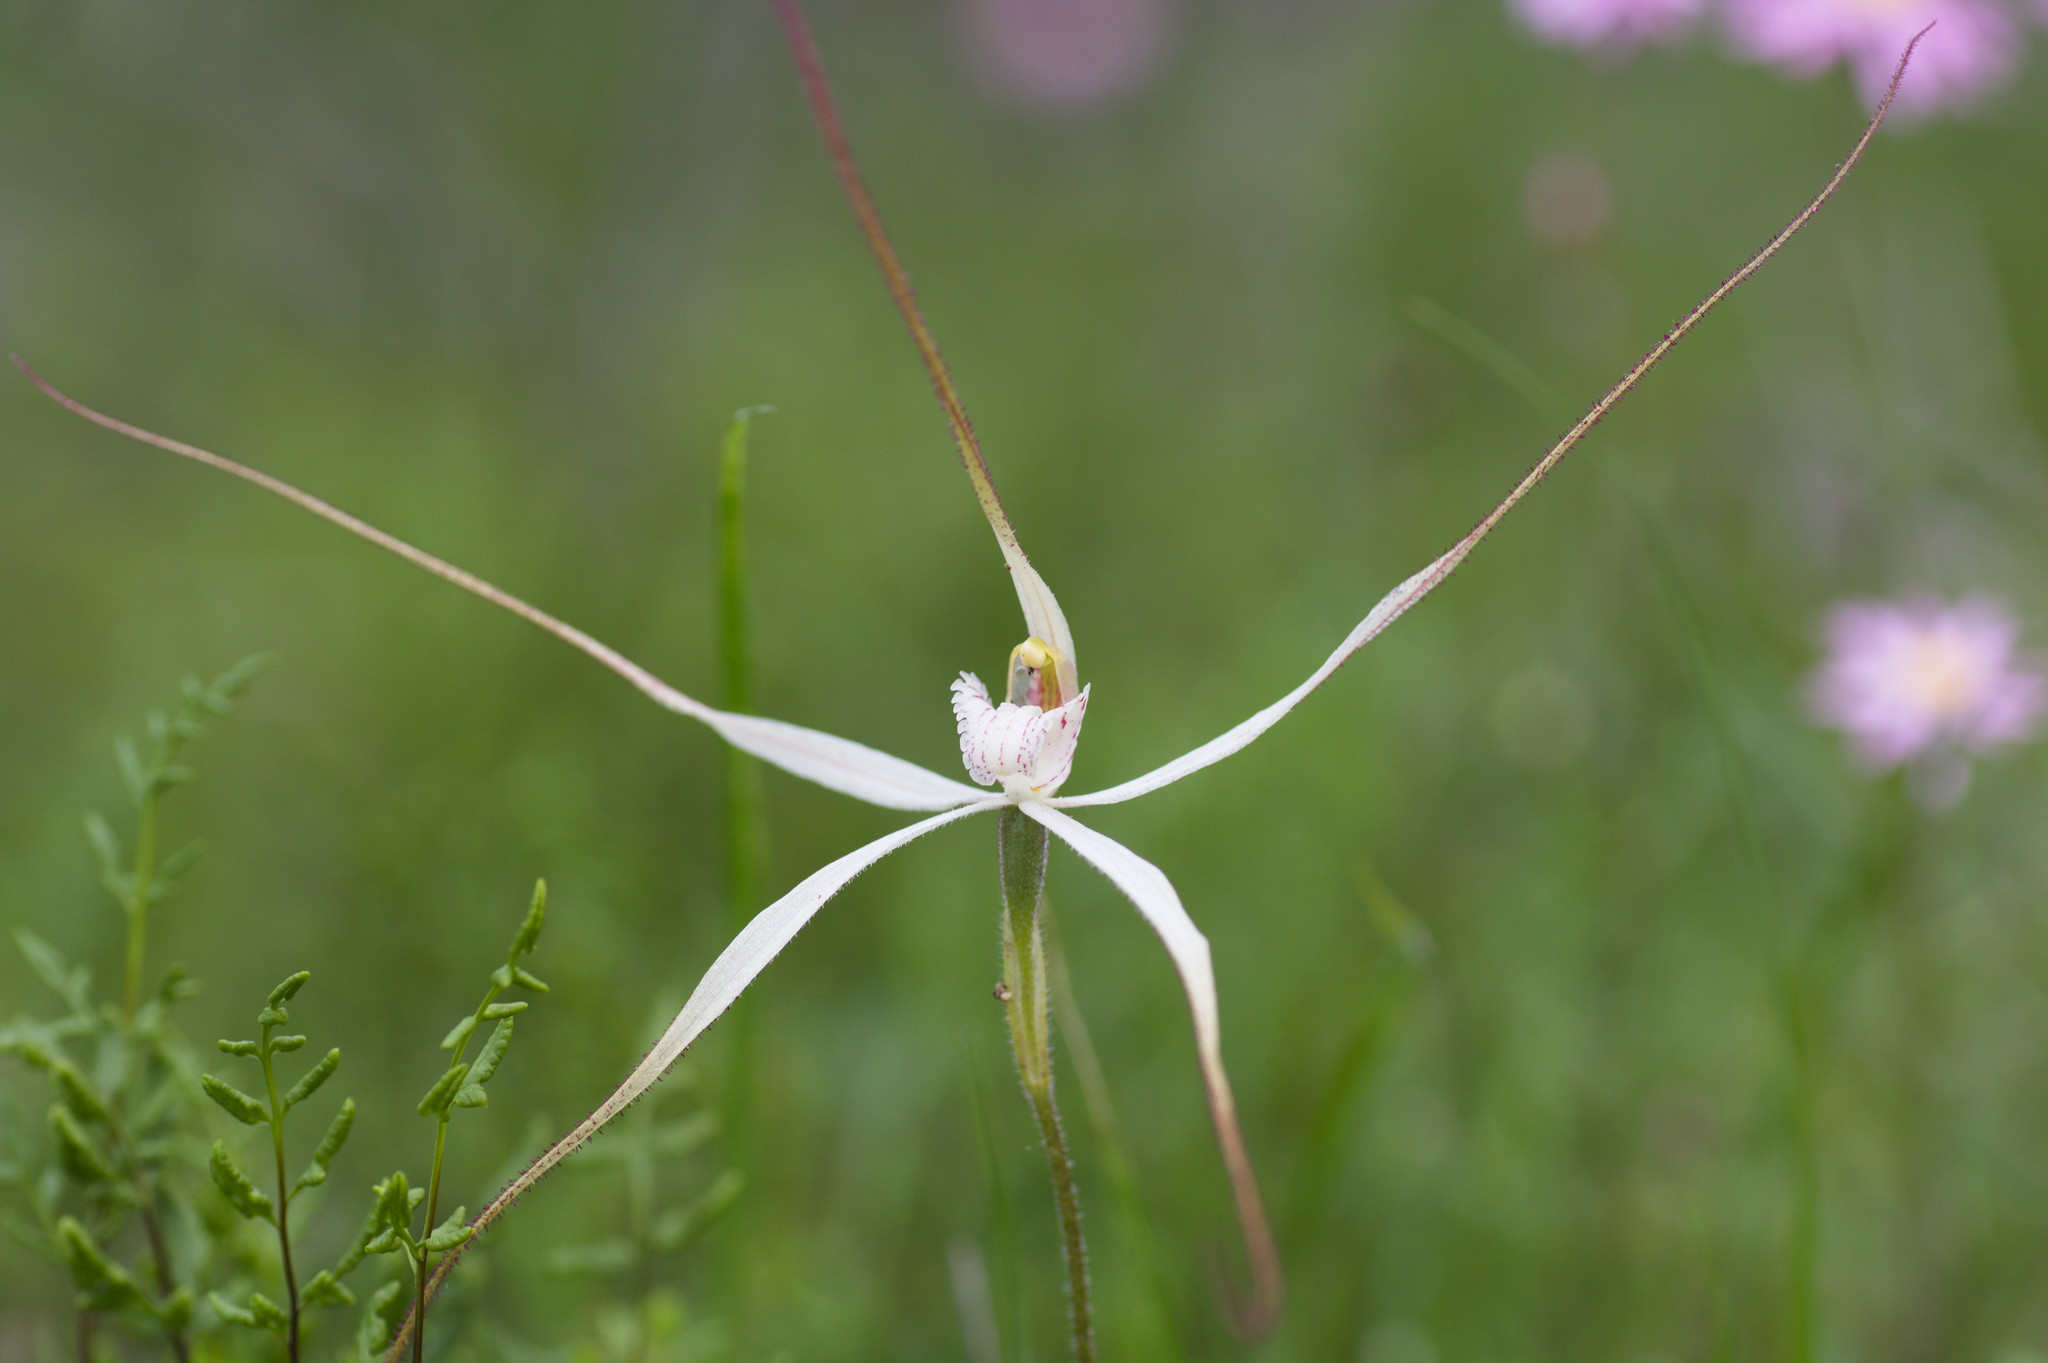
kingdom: Plantae
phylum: Tracheophyta
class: Liliopsida
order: Asparagales
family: Orchidaceae
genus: Caladenia
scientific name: Caladenia incensum
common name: Glistening spider orchid
